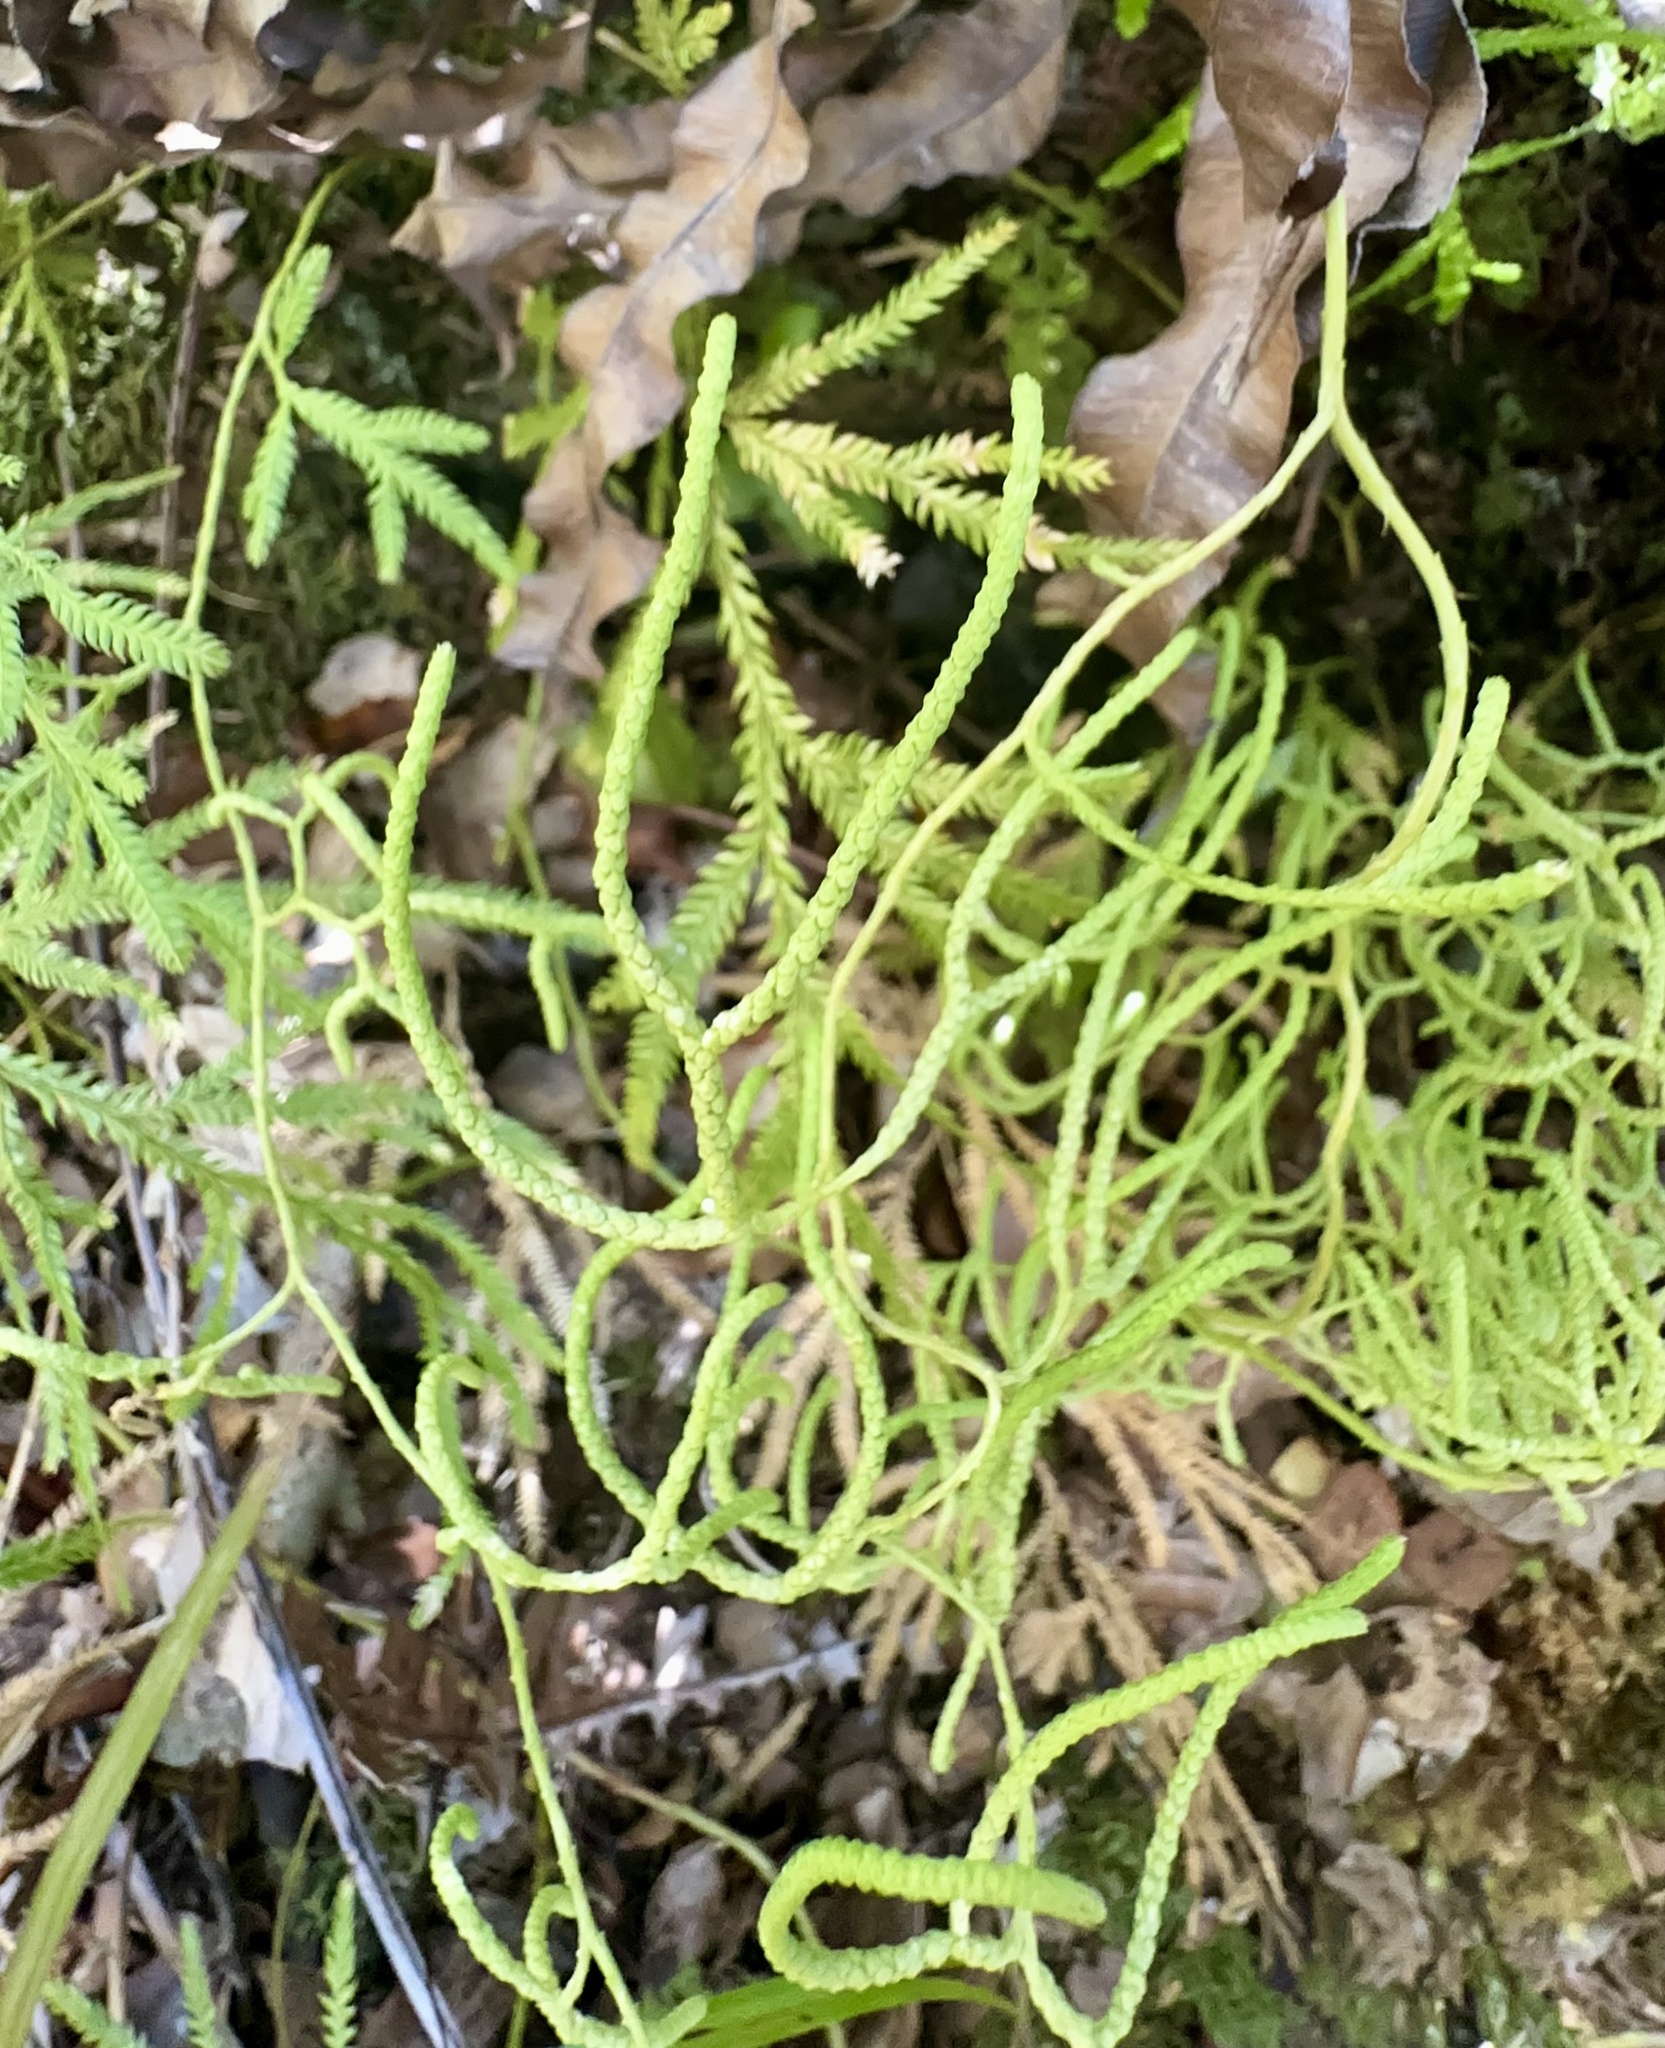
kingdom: Plantae
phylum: Tracheophyta
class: Lycopodiopsida
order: Lycopodiales
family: Lycopodiaceae
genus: Lycopodium
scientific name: Lycopodium volubile
